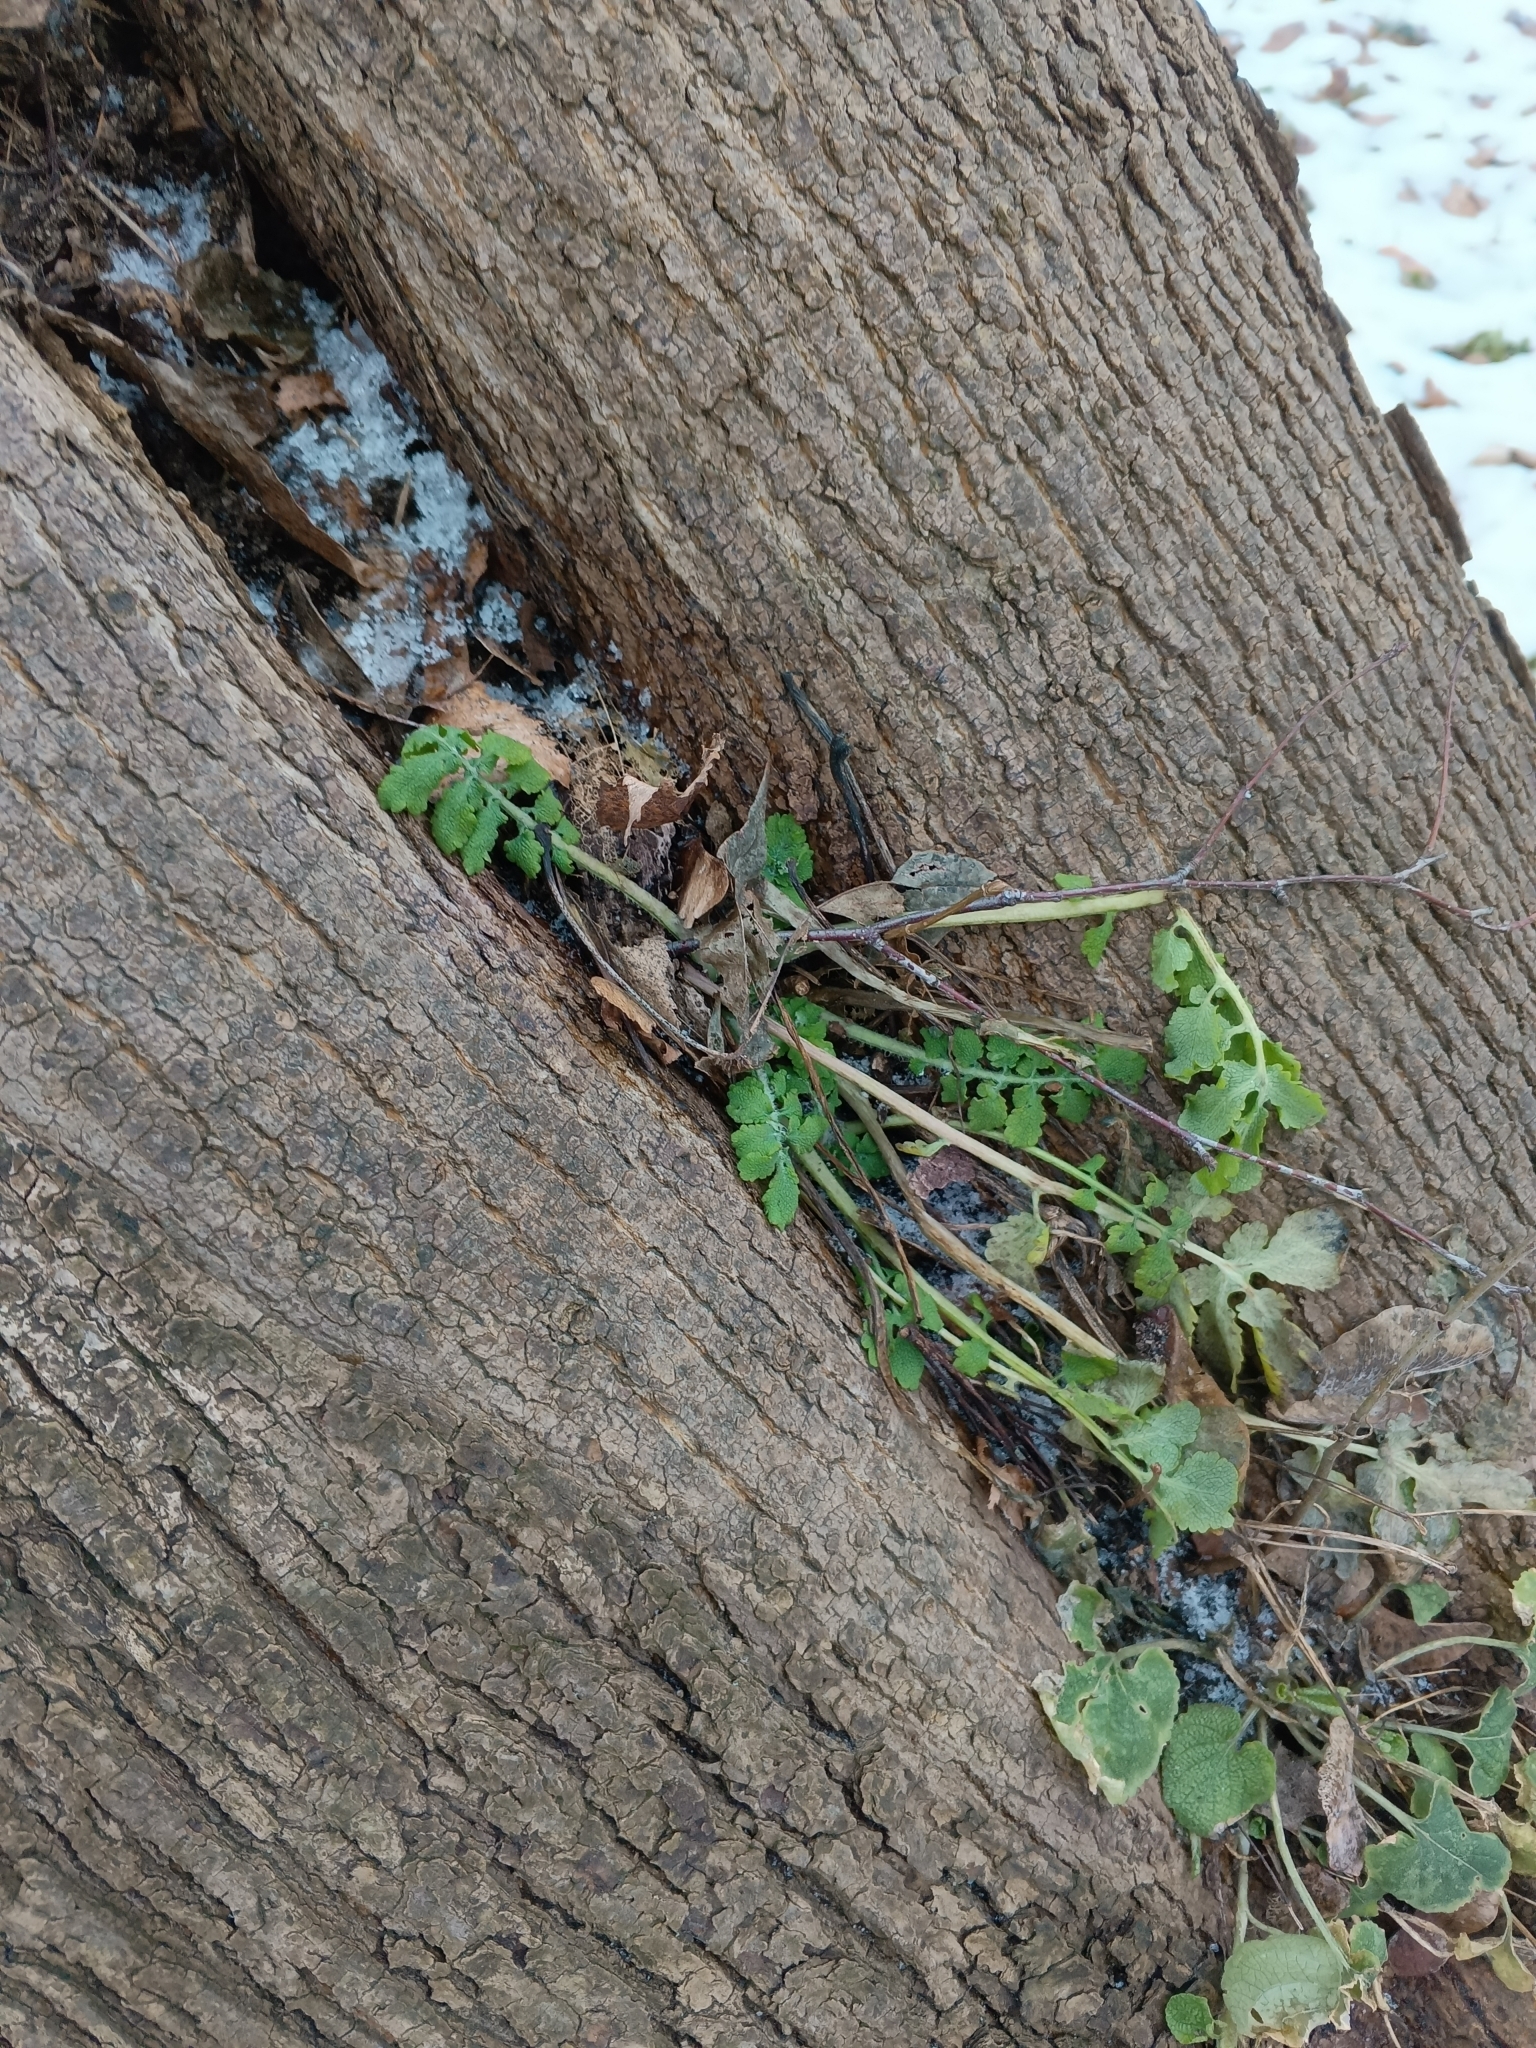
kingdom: Plantae
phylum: Tracheophyta
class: Magnoliopsida
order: Ranunculales
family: Papaveraceae
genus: Chelidonium
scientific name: Chelidonium majus
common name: Greater celandine
